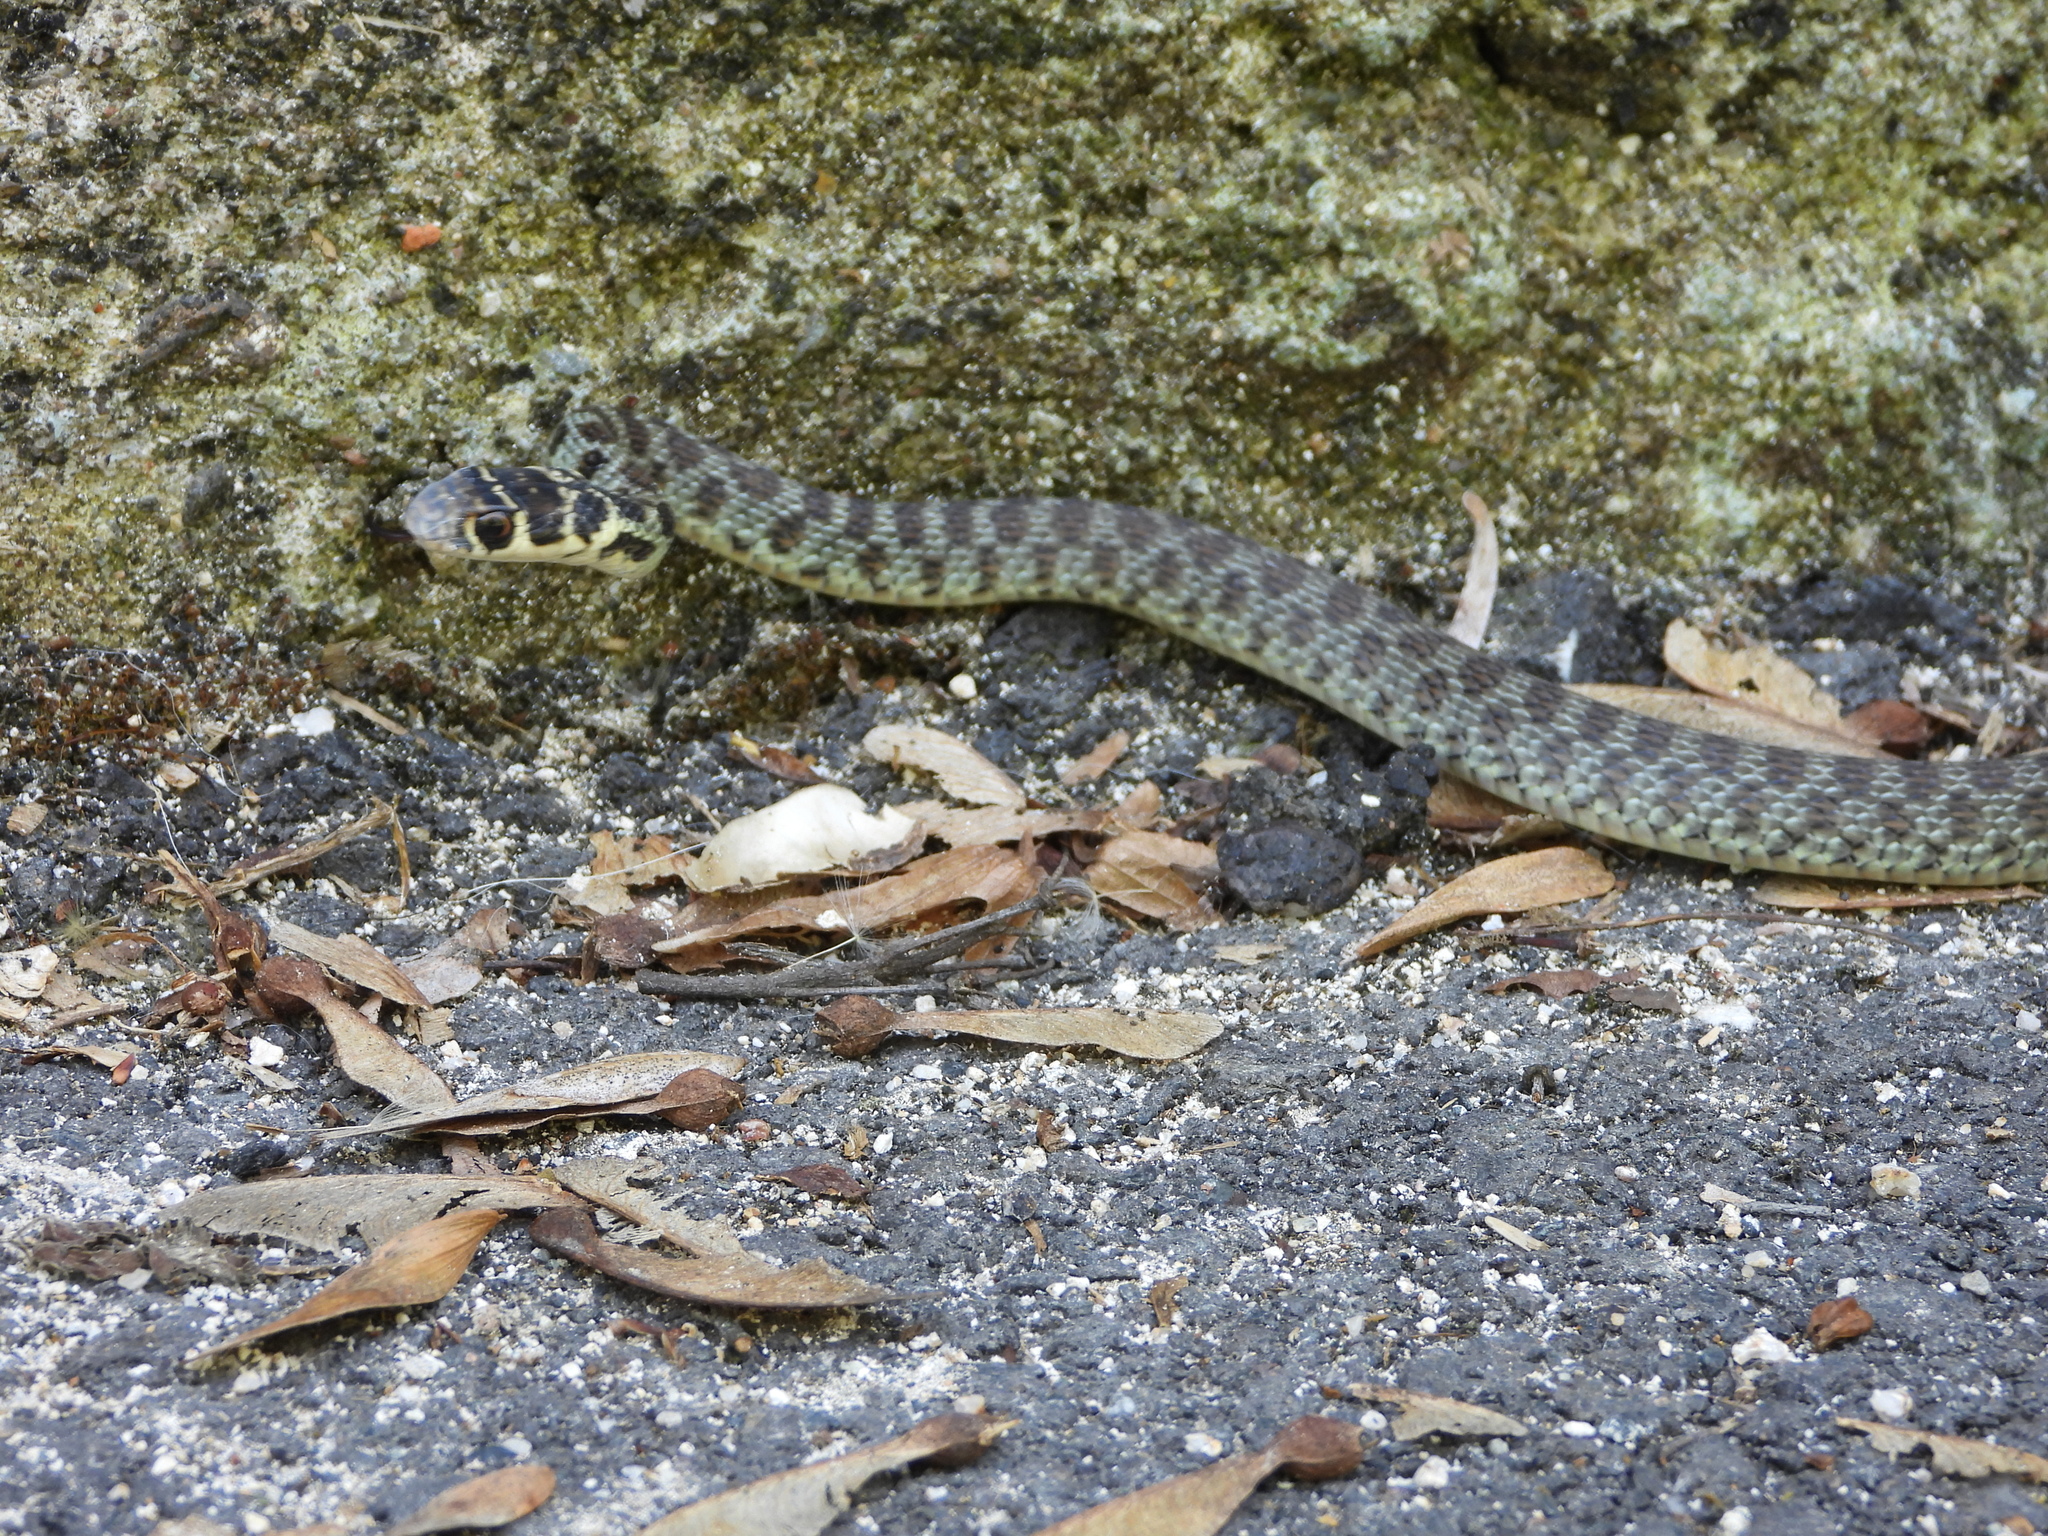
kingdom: Animalia
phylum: Chordata
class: Squamata
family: Colubridae
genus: Hierophis
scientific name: Hierophis viridiflavus
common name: Green whip snake
